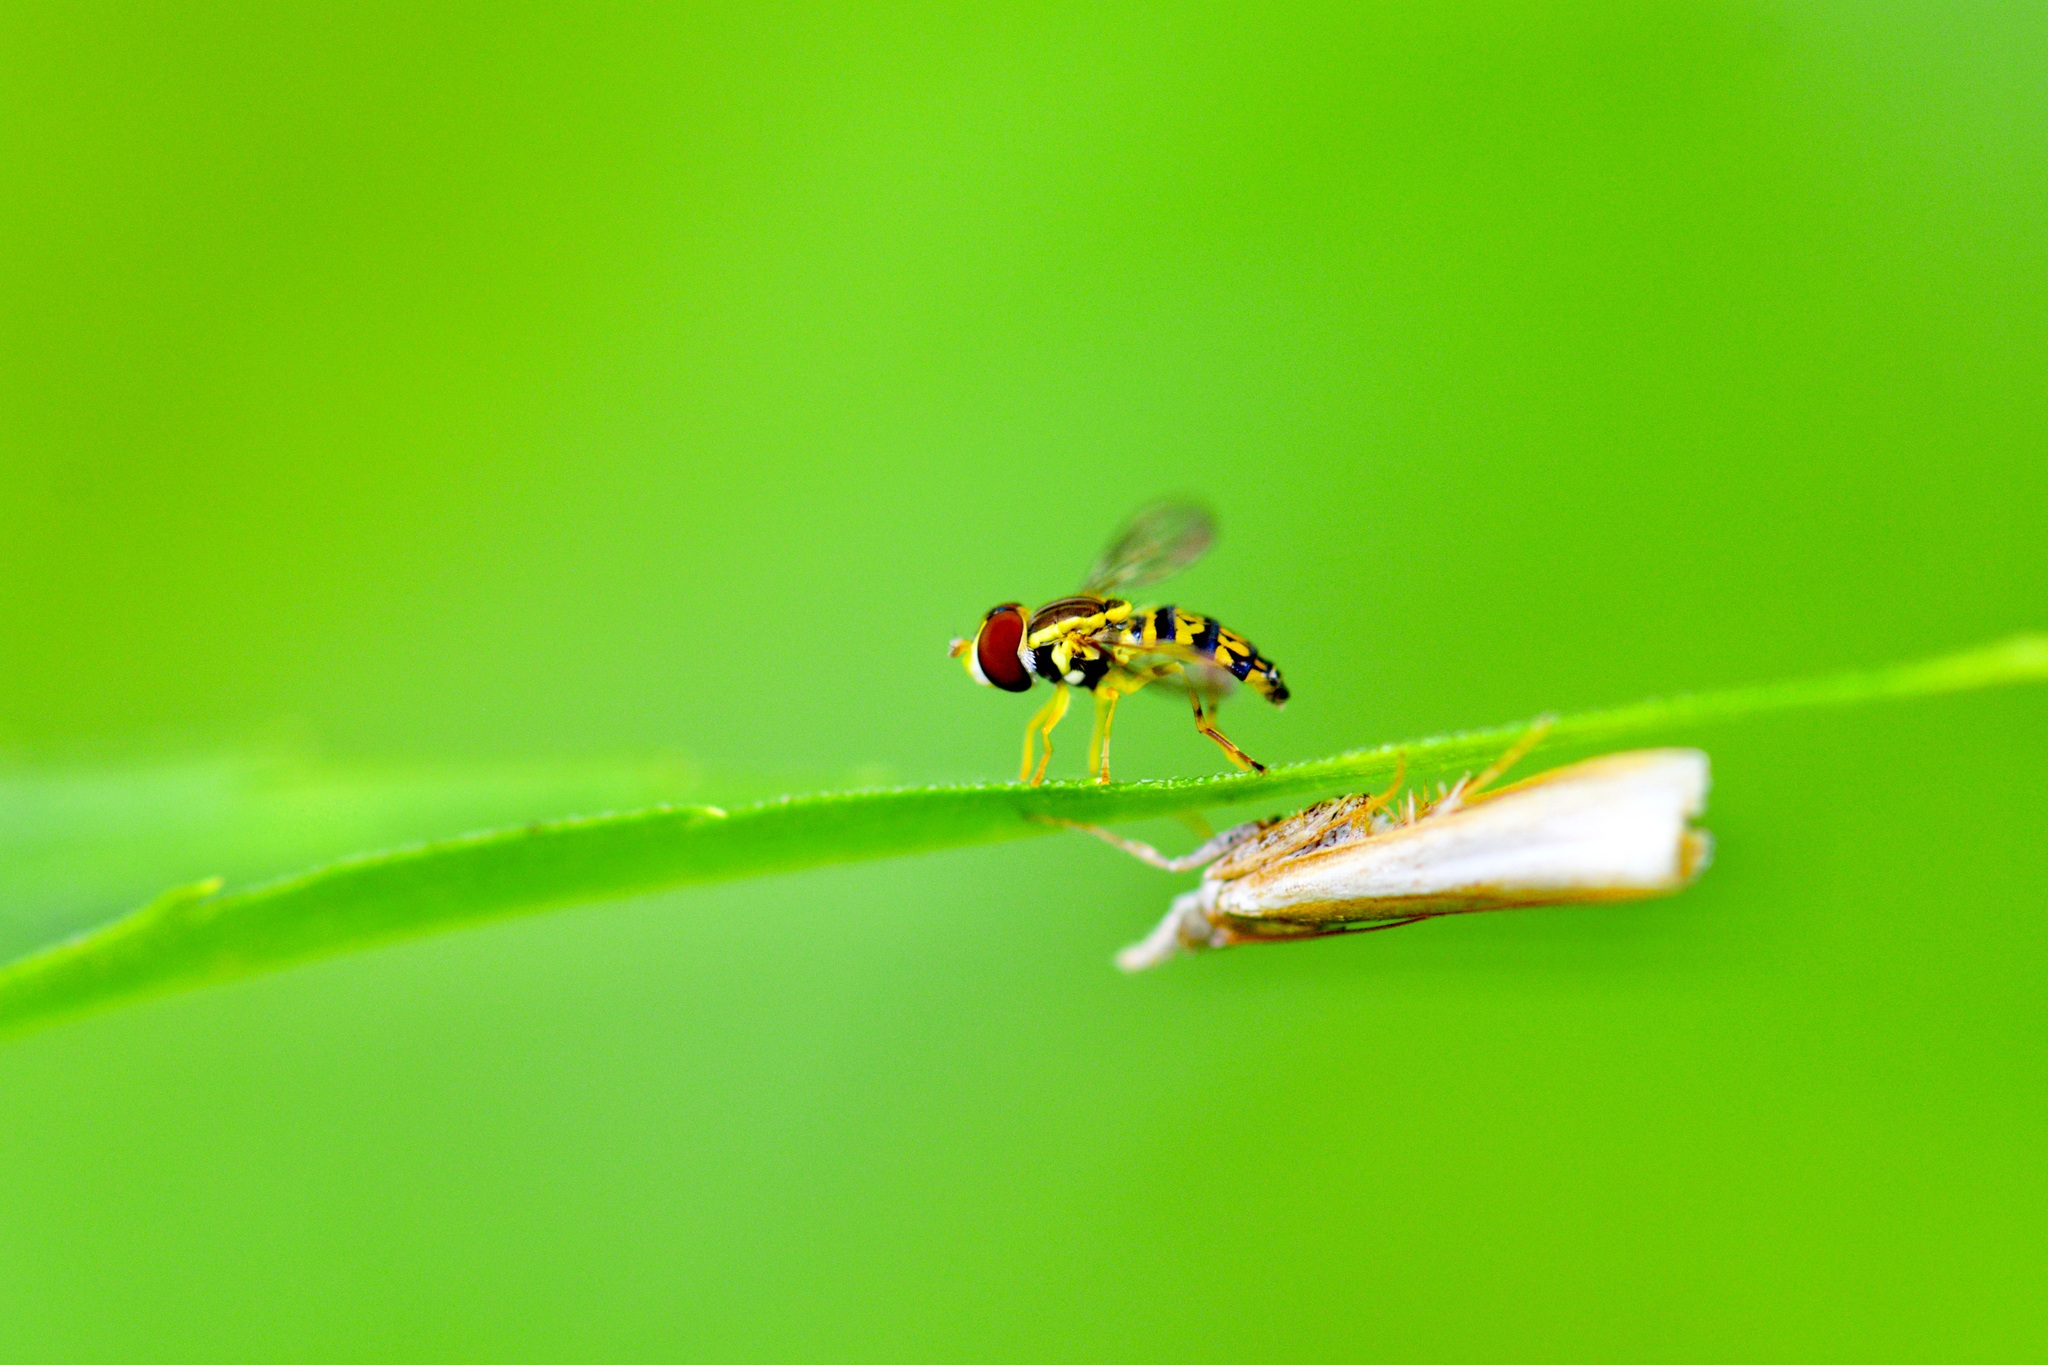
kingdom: Animalia
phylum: Arthropoda
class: Insecta
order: Diptera
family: Syrphidae
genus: Toxomerus
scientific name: Toxomerus geminatus
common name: Eastern calligrapher
